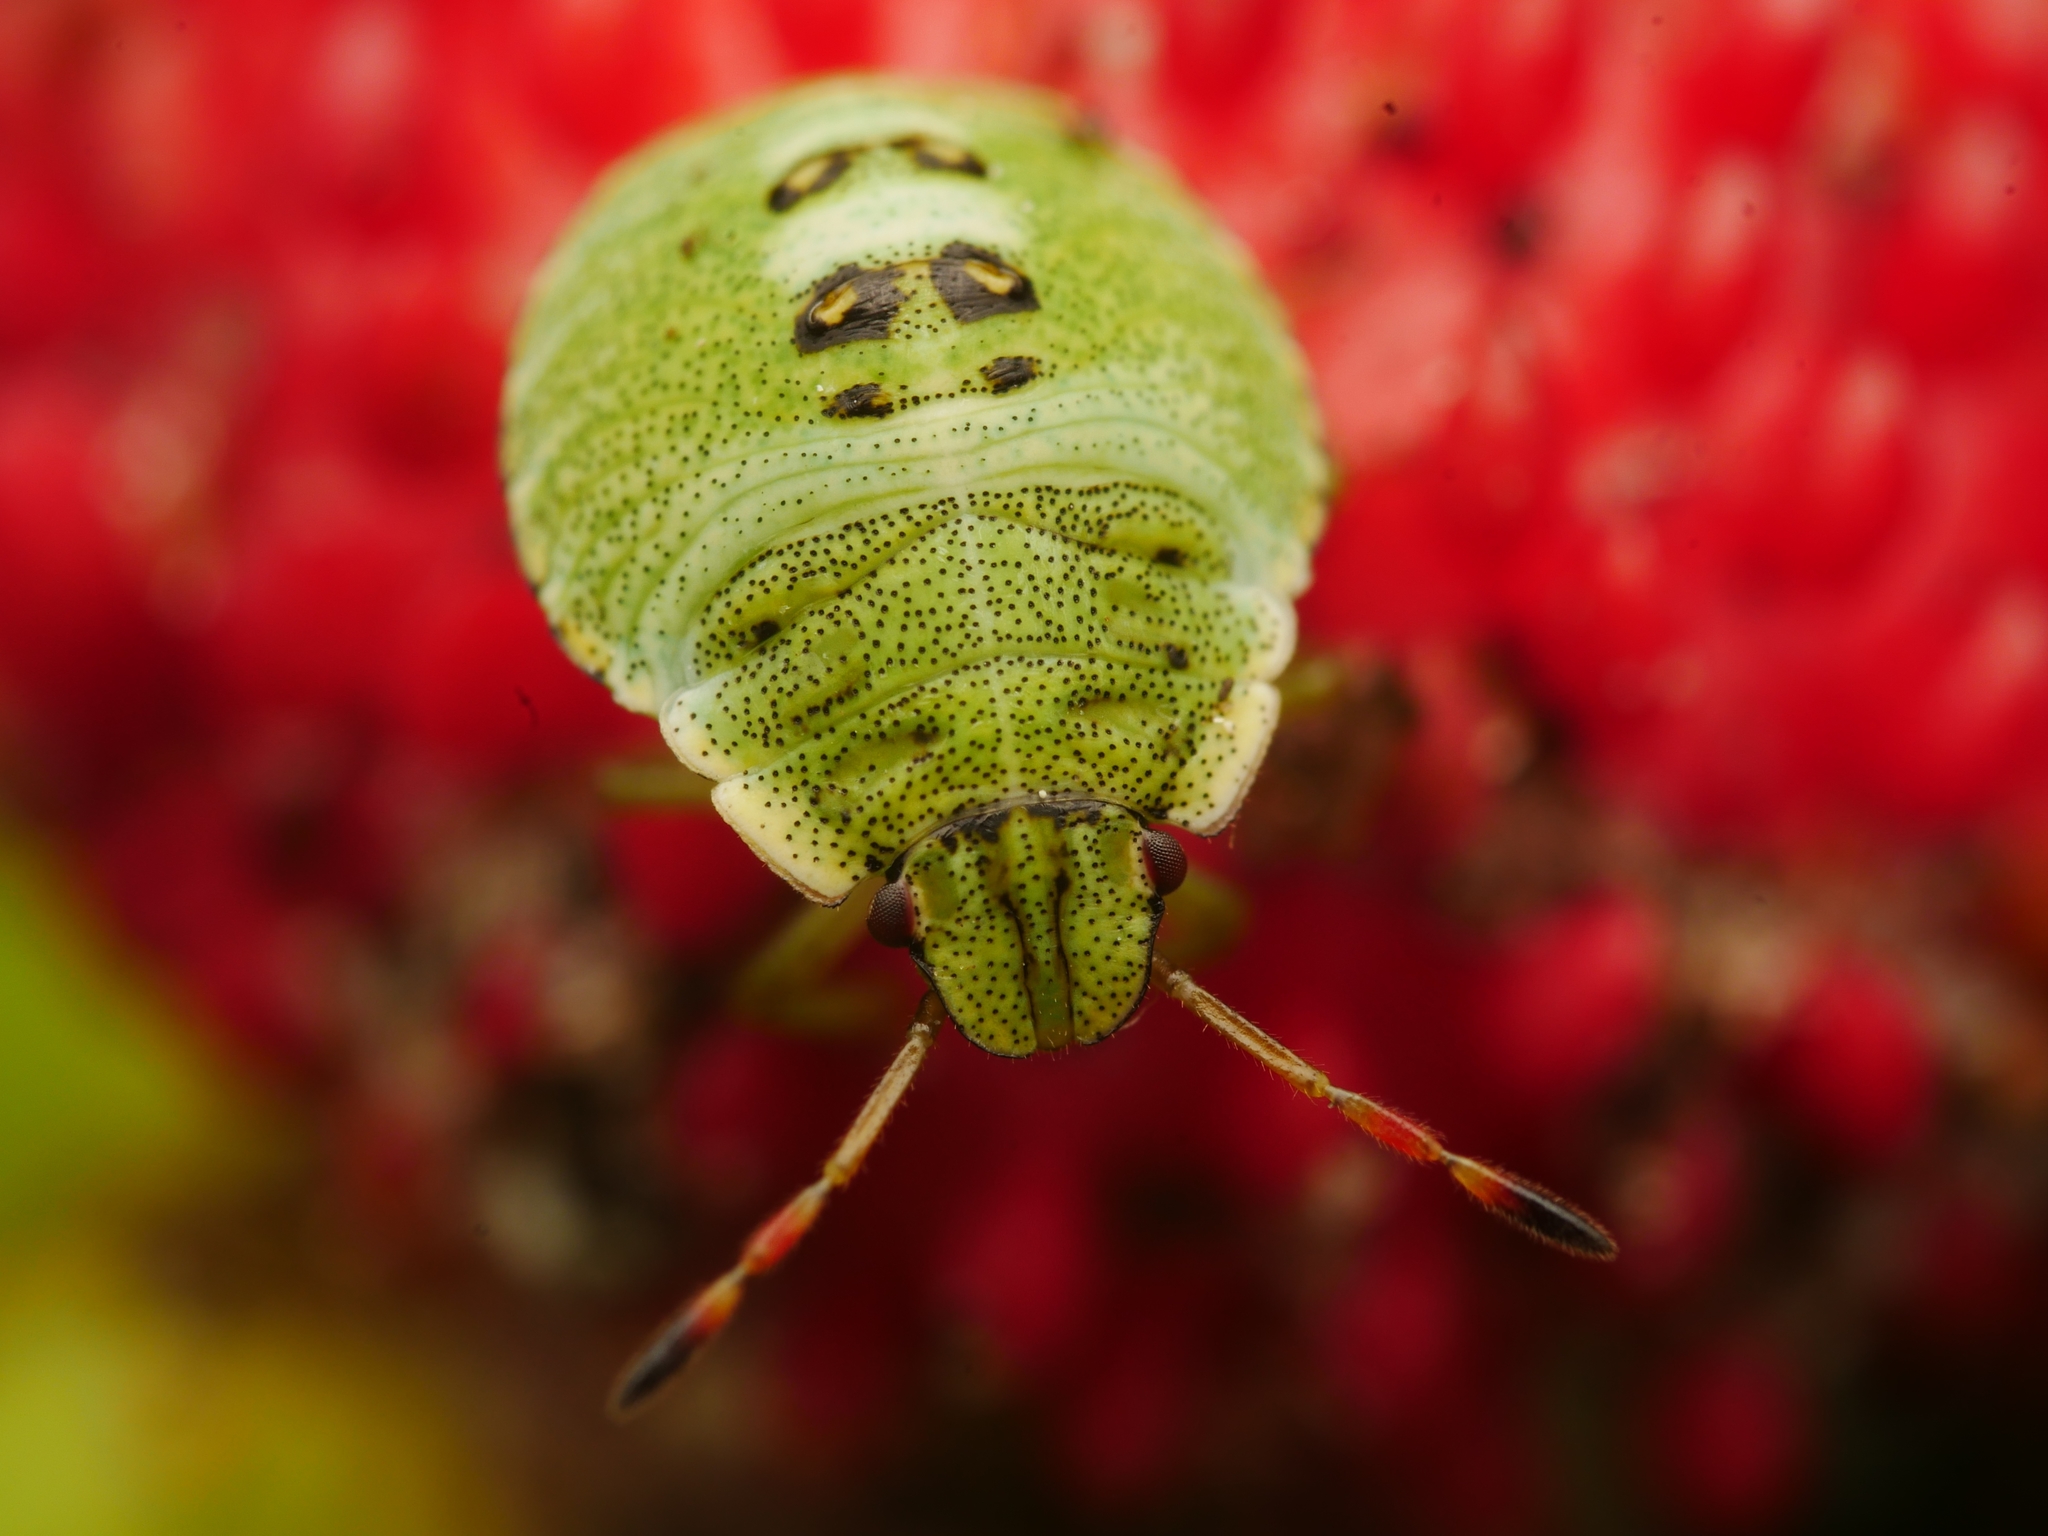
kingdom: Animalia
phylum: Arthropoda
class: Insecta
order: Hemiptera
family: Pentatomidae
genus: Palomena
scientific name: Palomena prasina
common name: Green shieldbug
